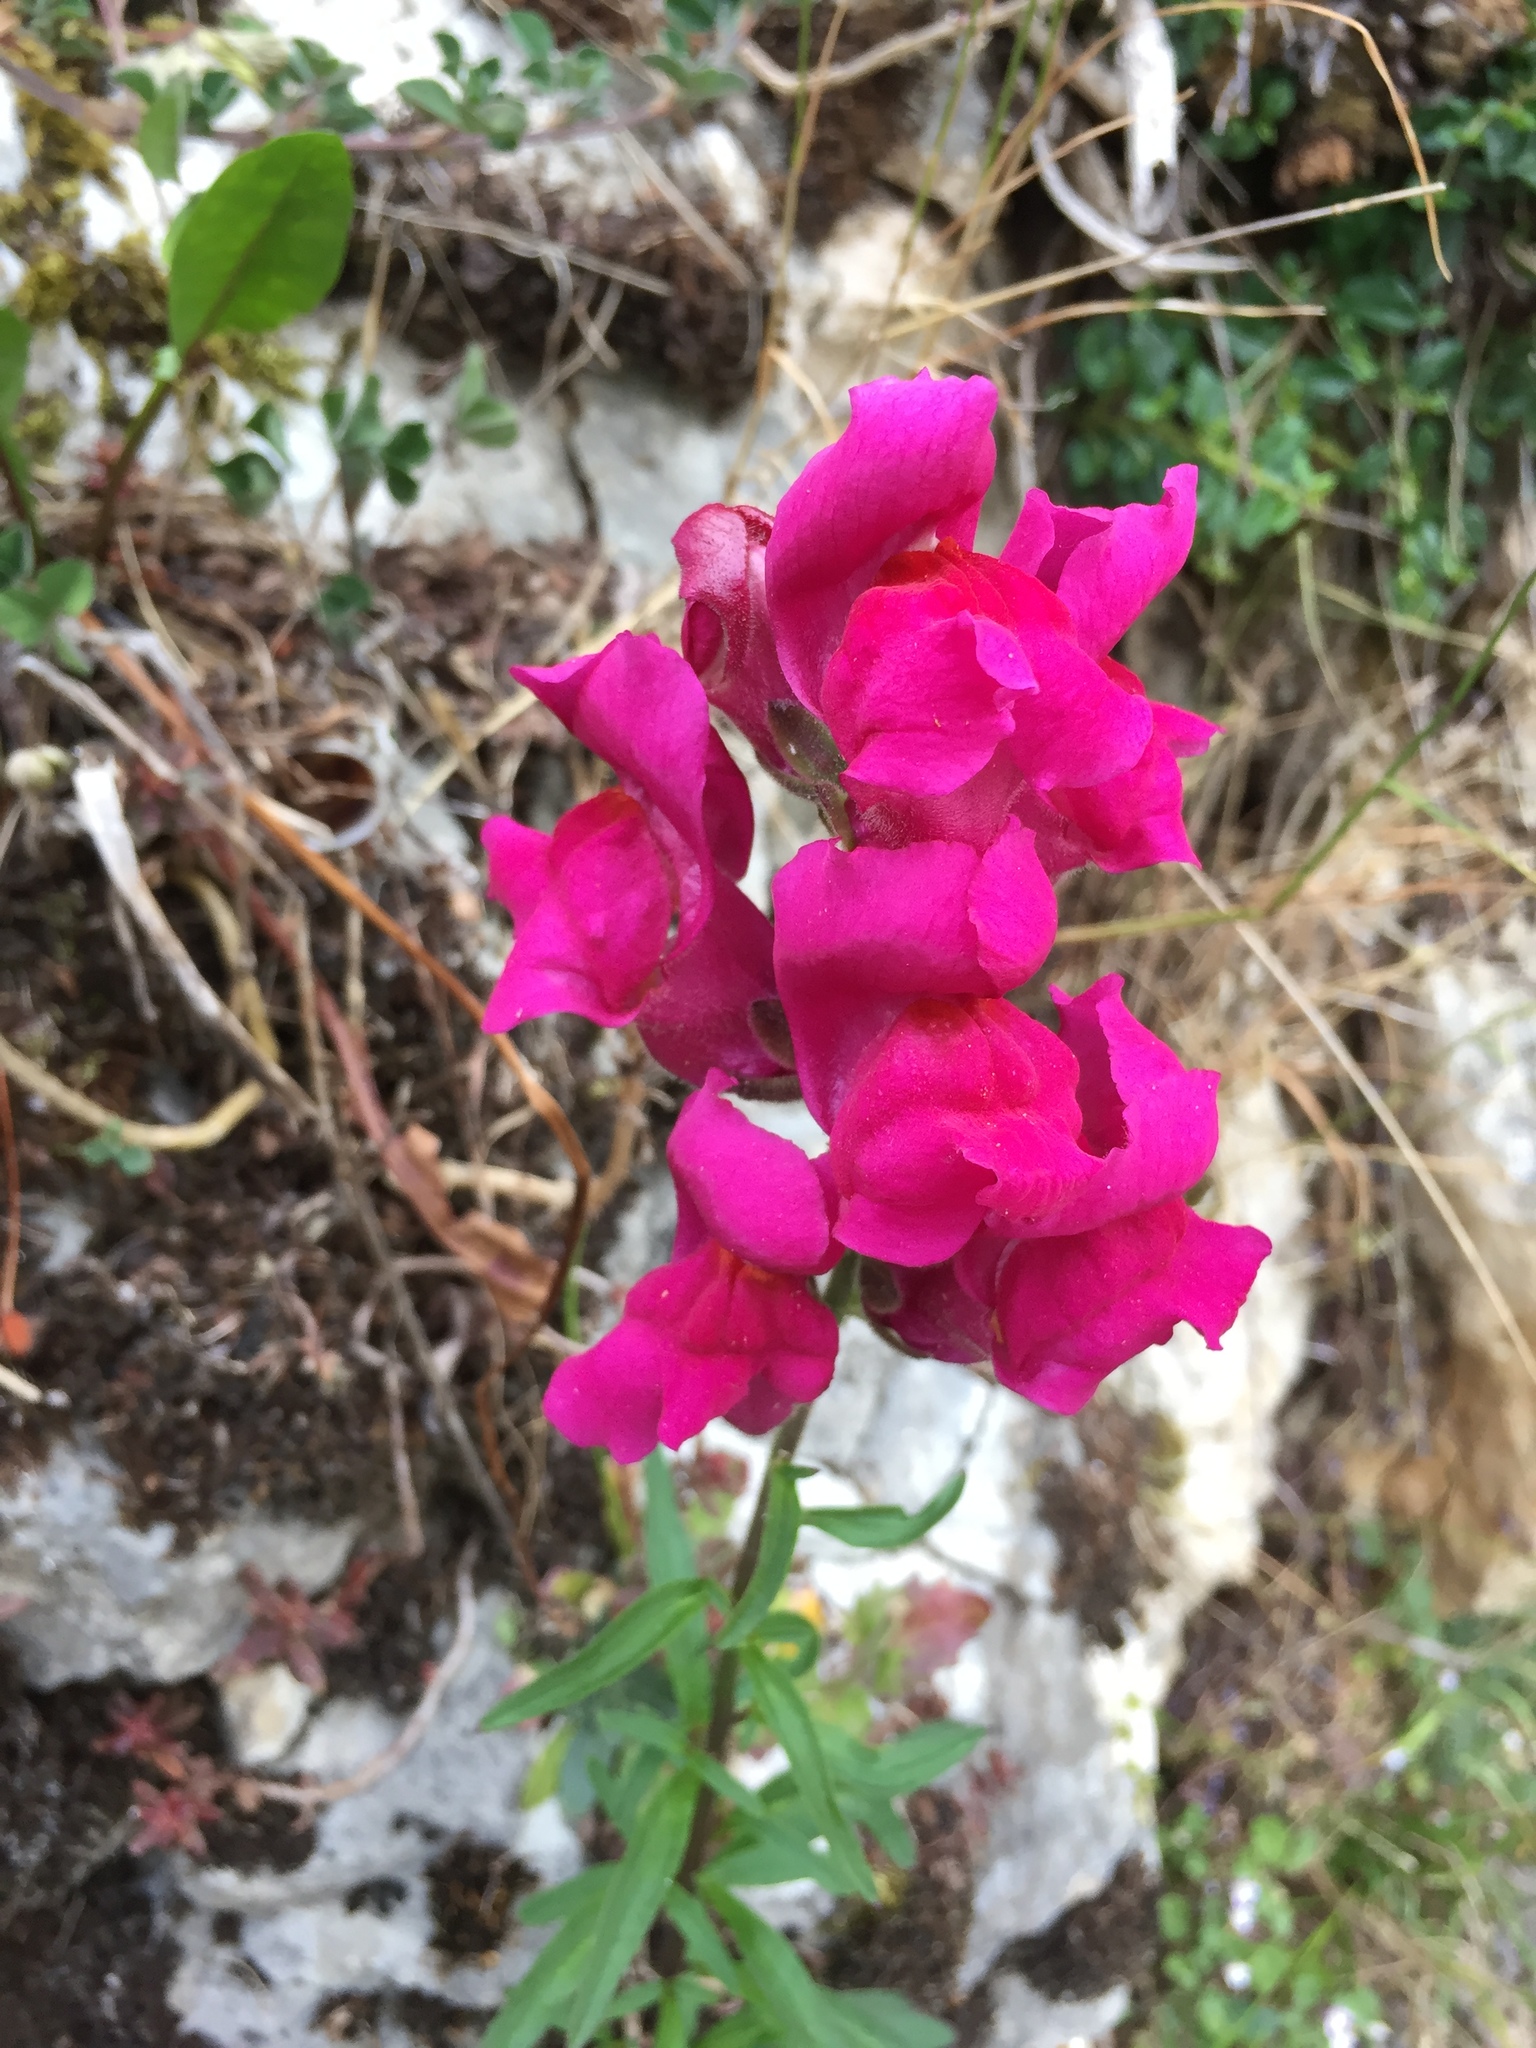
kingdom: Plantae
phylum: Tracheophyta
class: Magnoliopsida
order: Lamiales
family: Plantaginaceae
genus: Antirrhinum
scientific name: Antirrhinum majus
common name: Snapdragon
